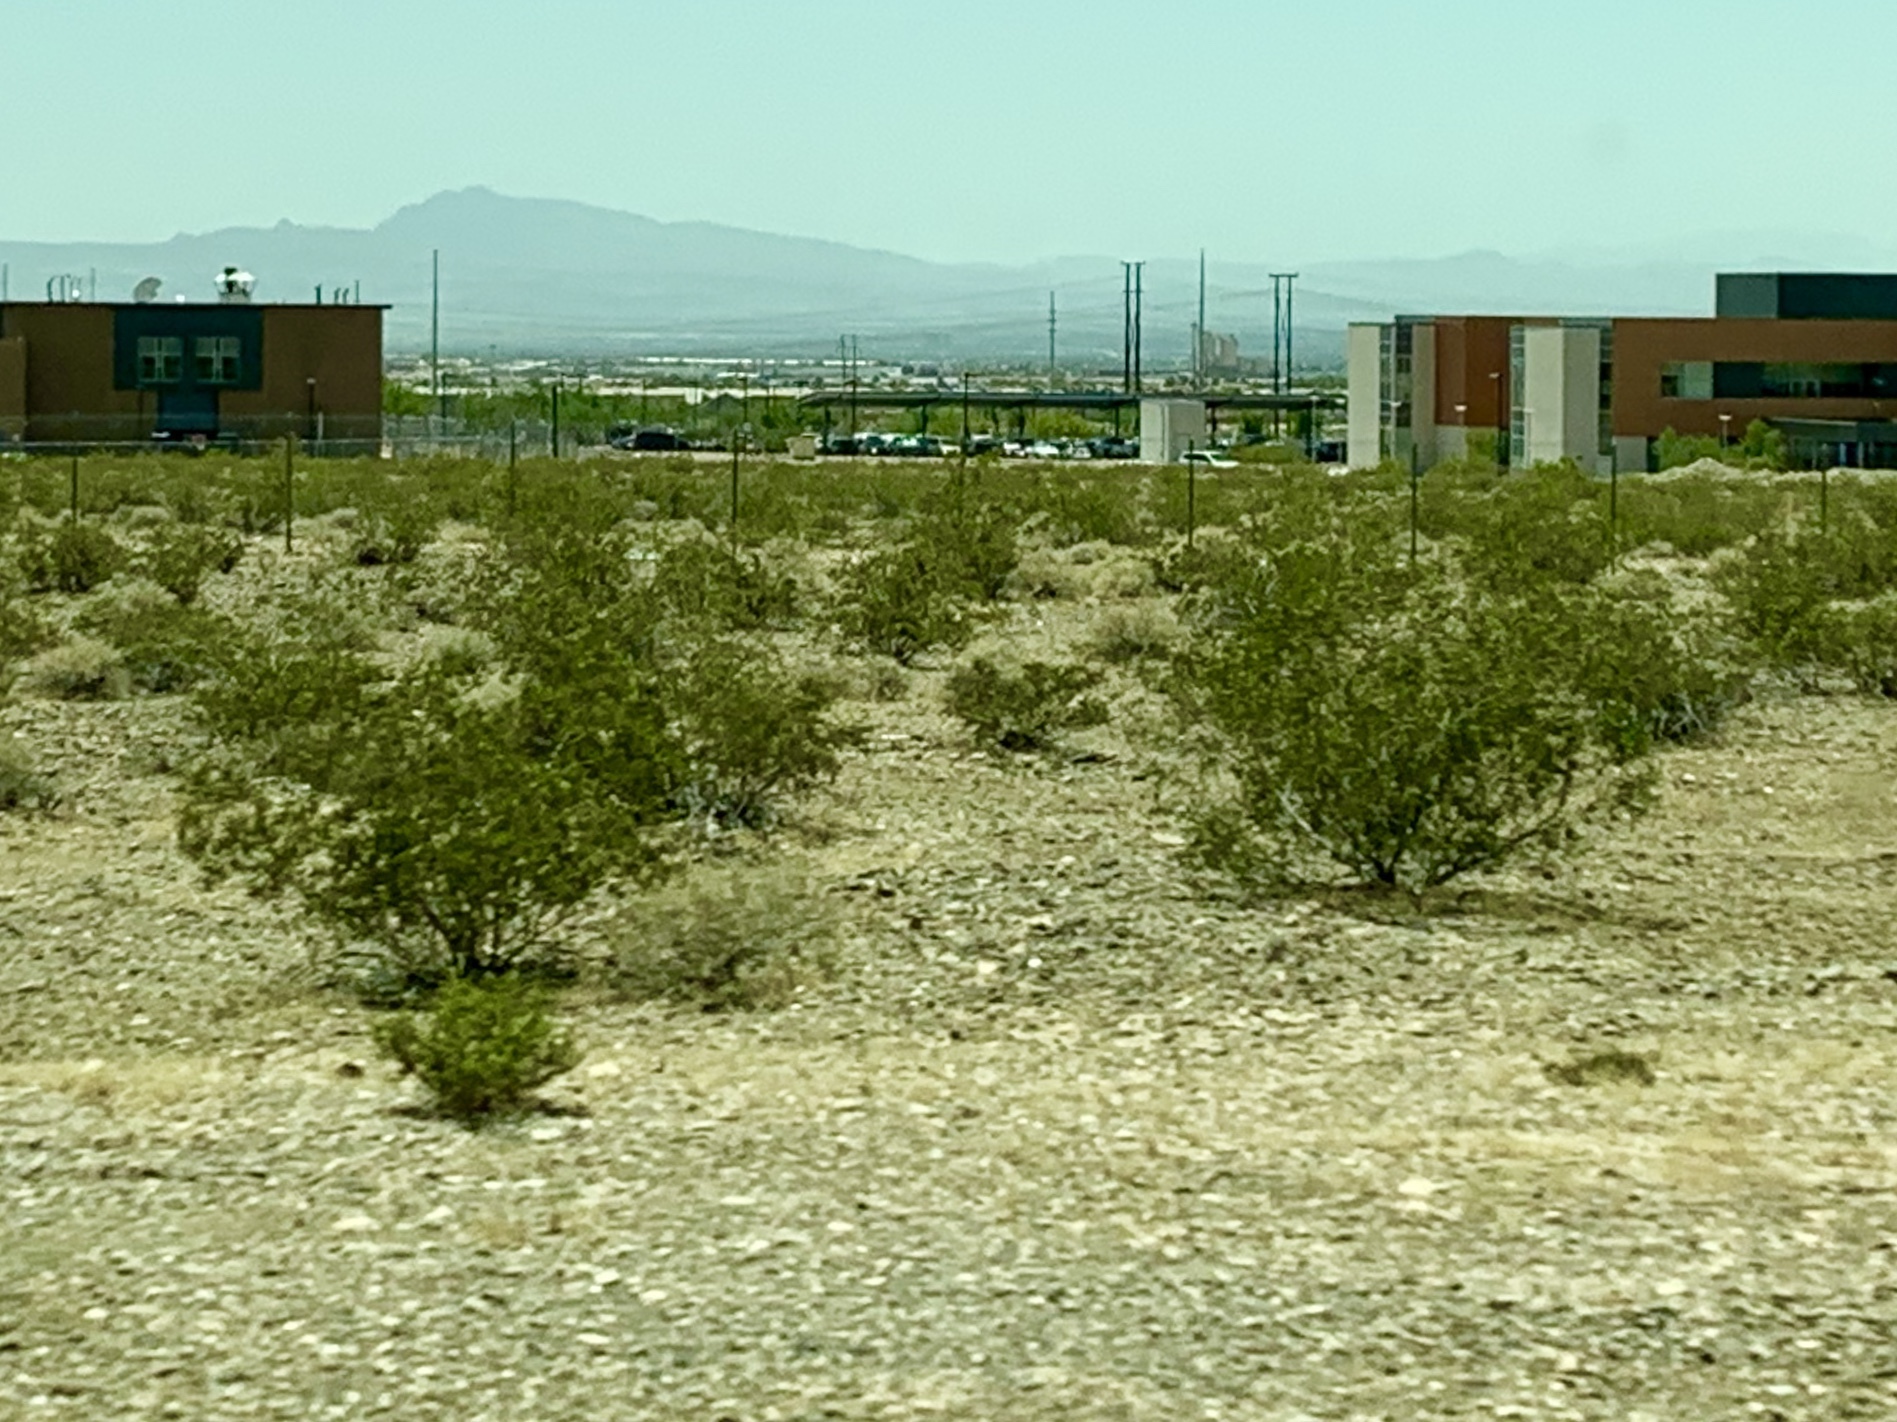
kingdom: Plantae
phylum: Tracheophyta
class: Magnoliopsida
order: Zygophyllales
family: Zygophyllaceae
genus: Larrea
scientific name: Larrea tridentata
